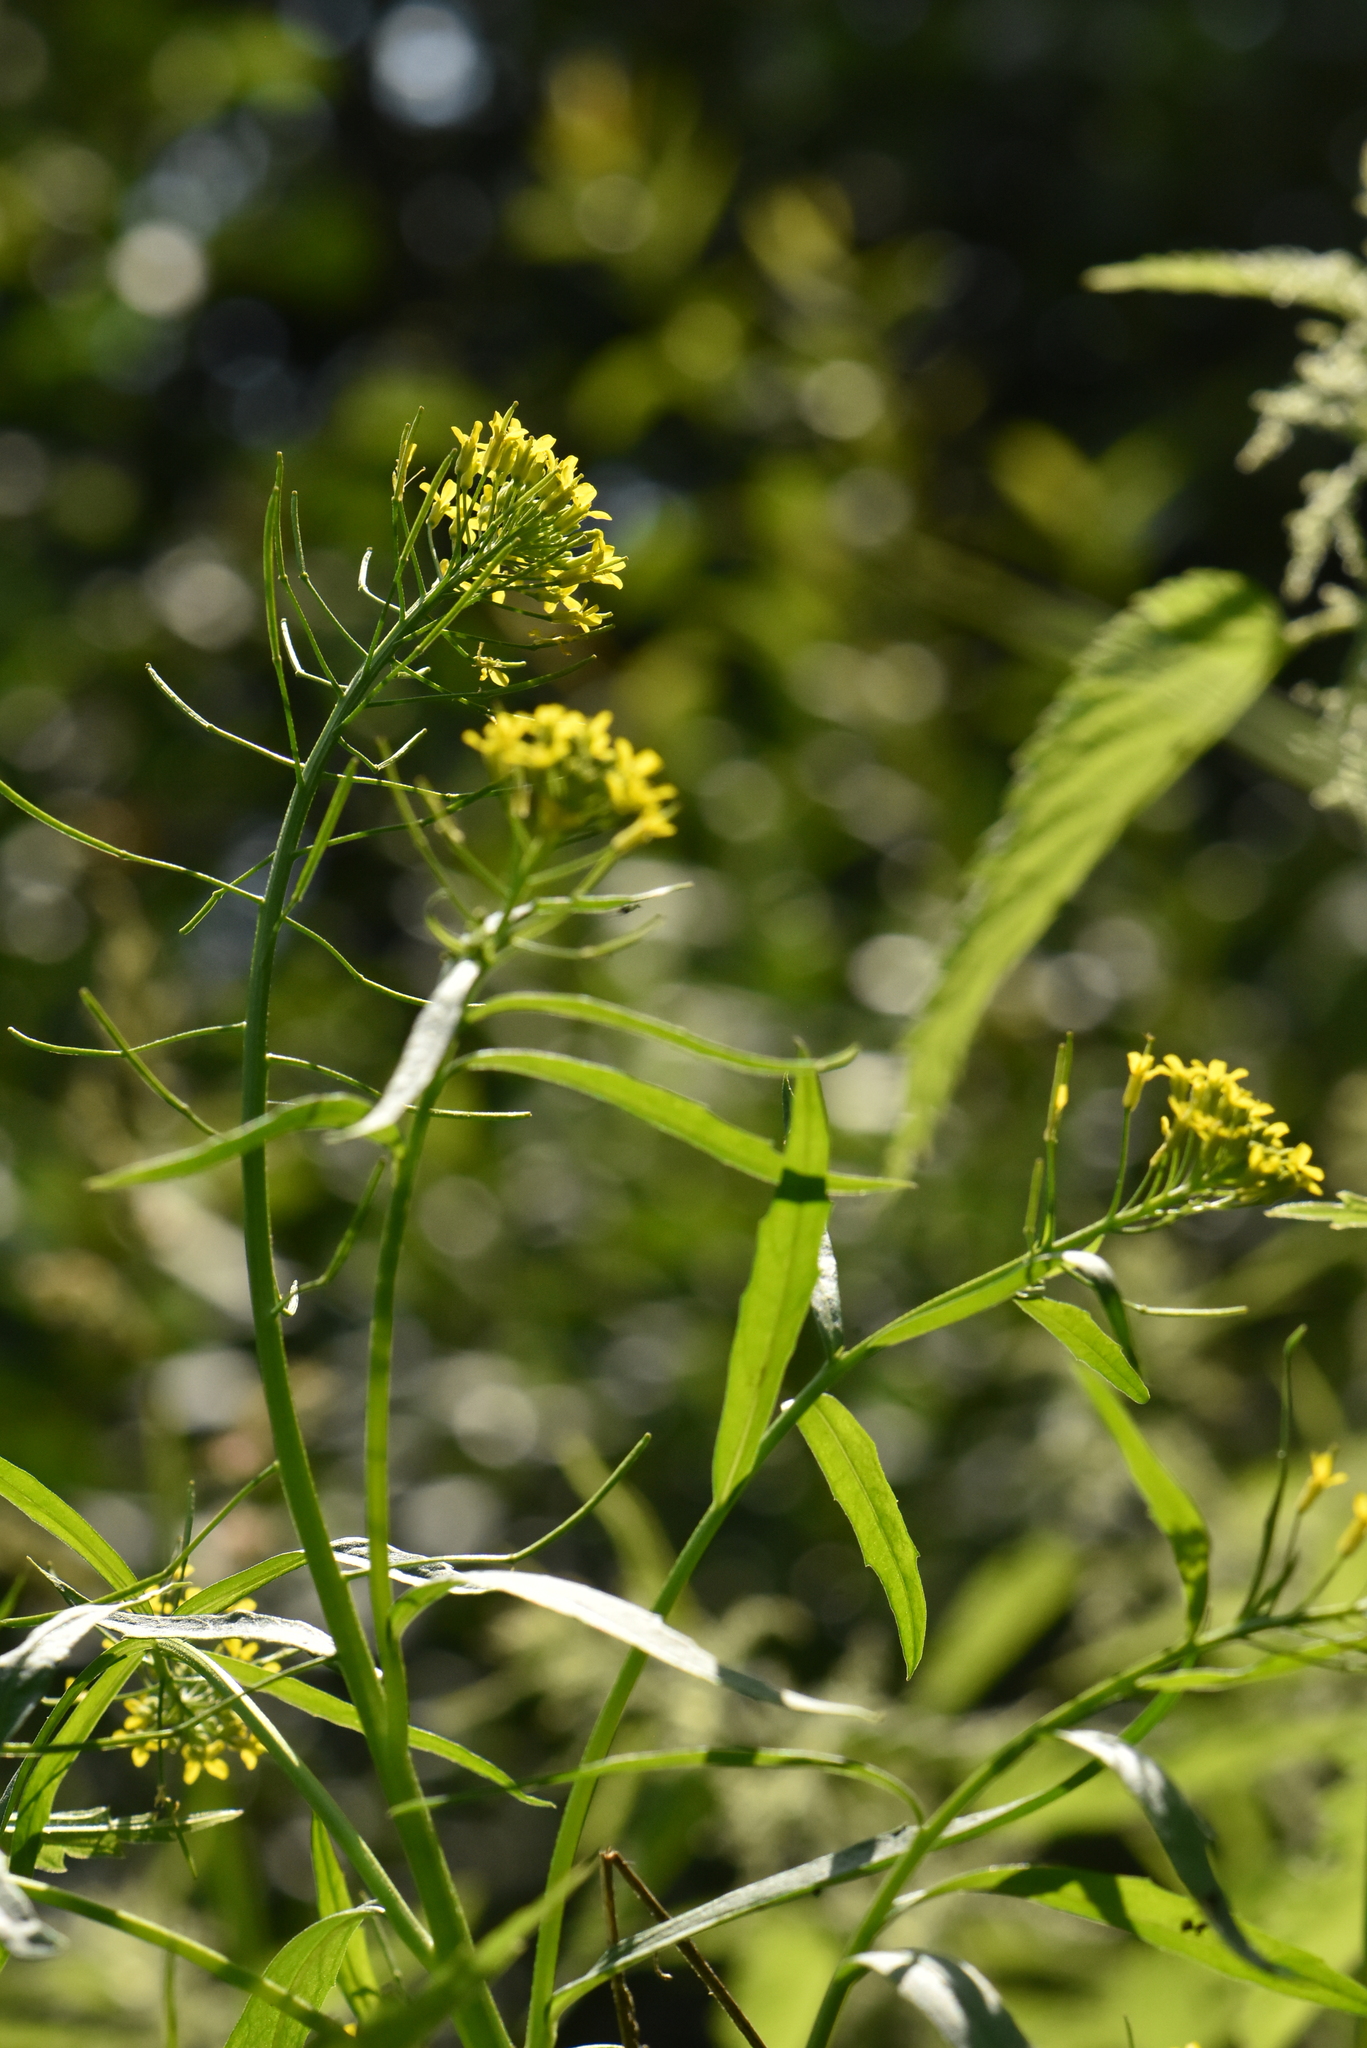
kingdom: Plantae
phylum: Tracheophyta
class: Magnoliopsida
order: Brassicales
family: Brassicaceae
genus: Erysimum
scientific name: Erysimum cheiranthoides
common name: Treacle mustard
